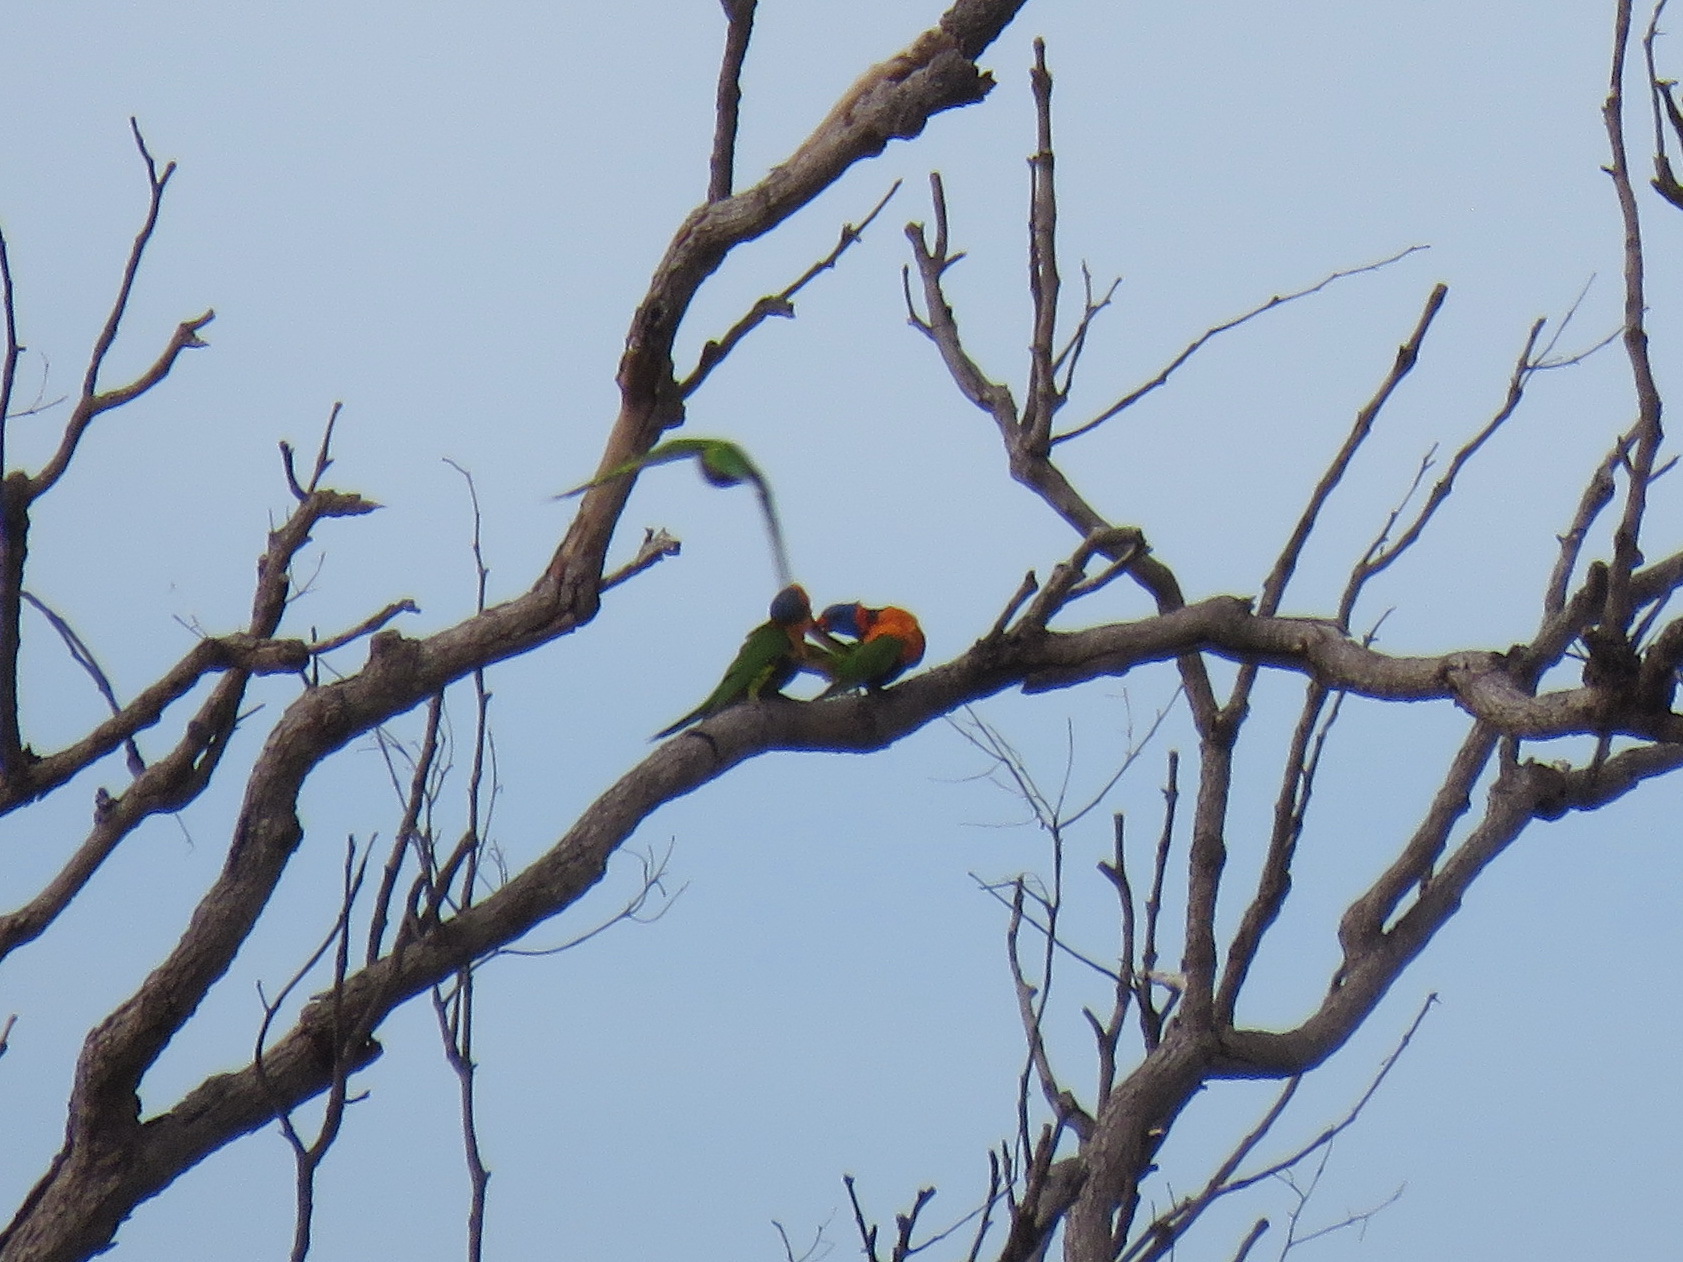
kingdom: Animalia
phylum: Chordata
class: Aves
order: Psittaciformes
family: Psittacidae
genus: Trichoglossus
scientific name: Trichoglossus rubritorquis
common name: Red-collared lorikeet
